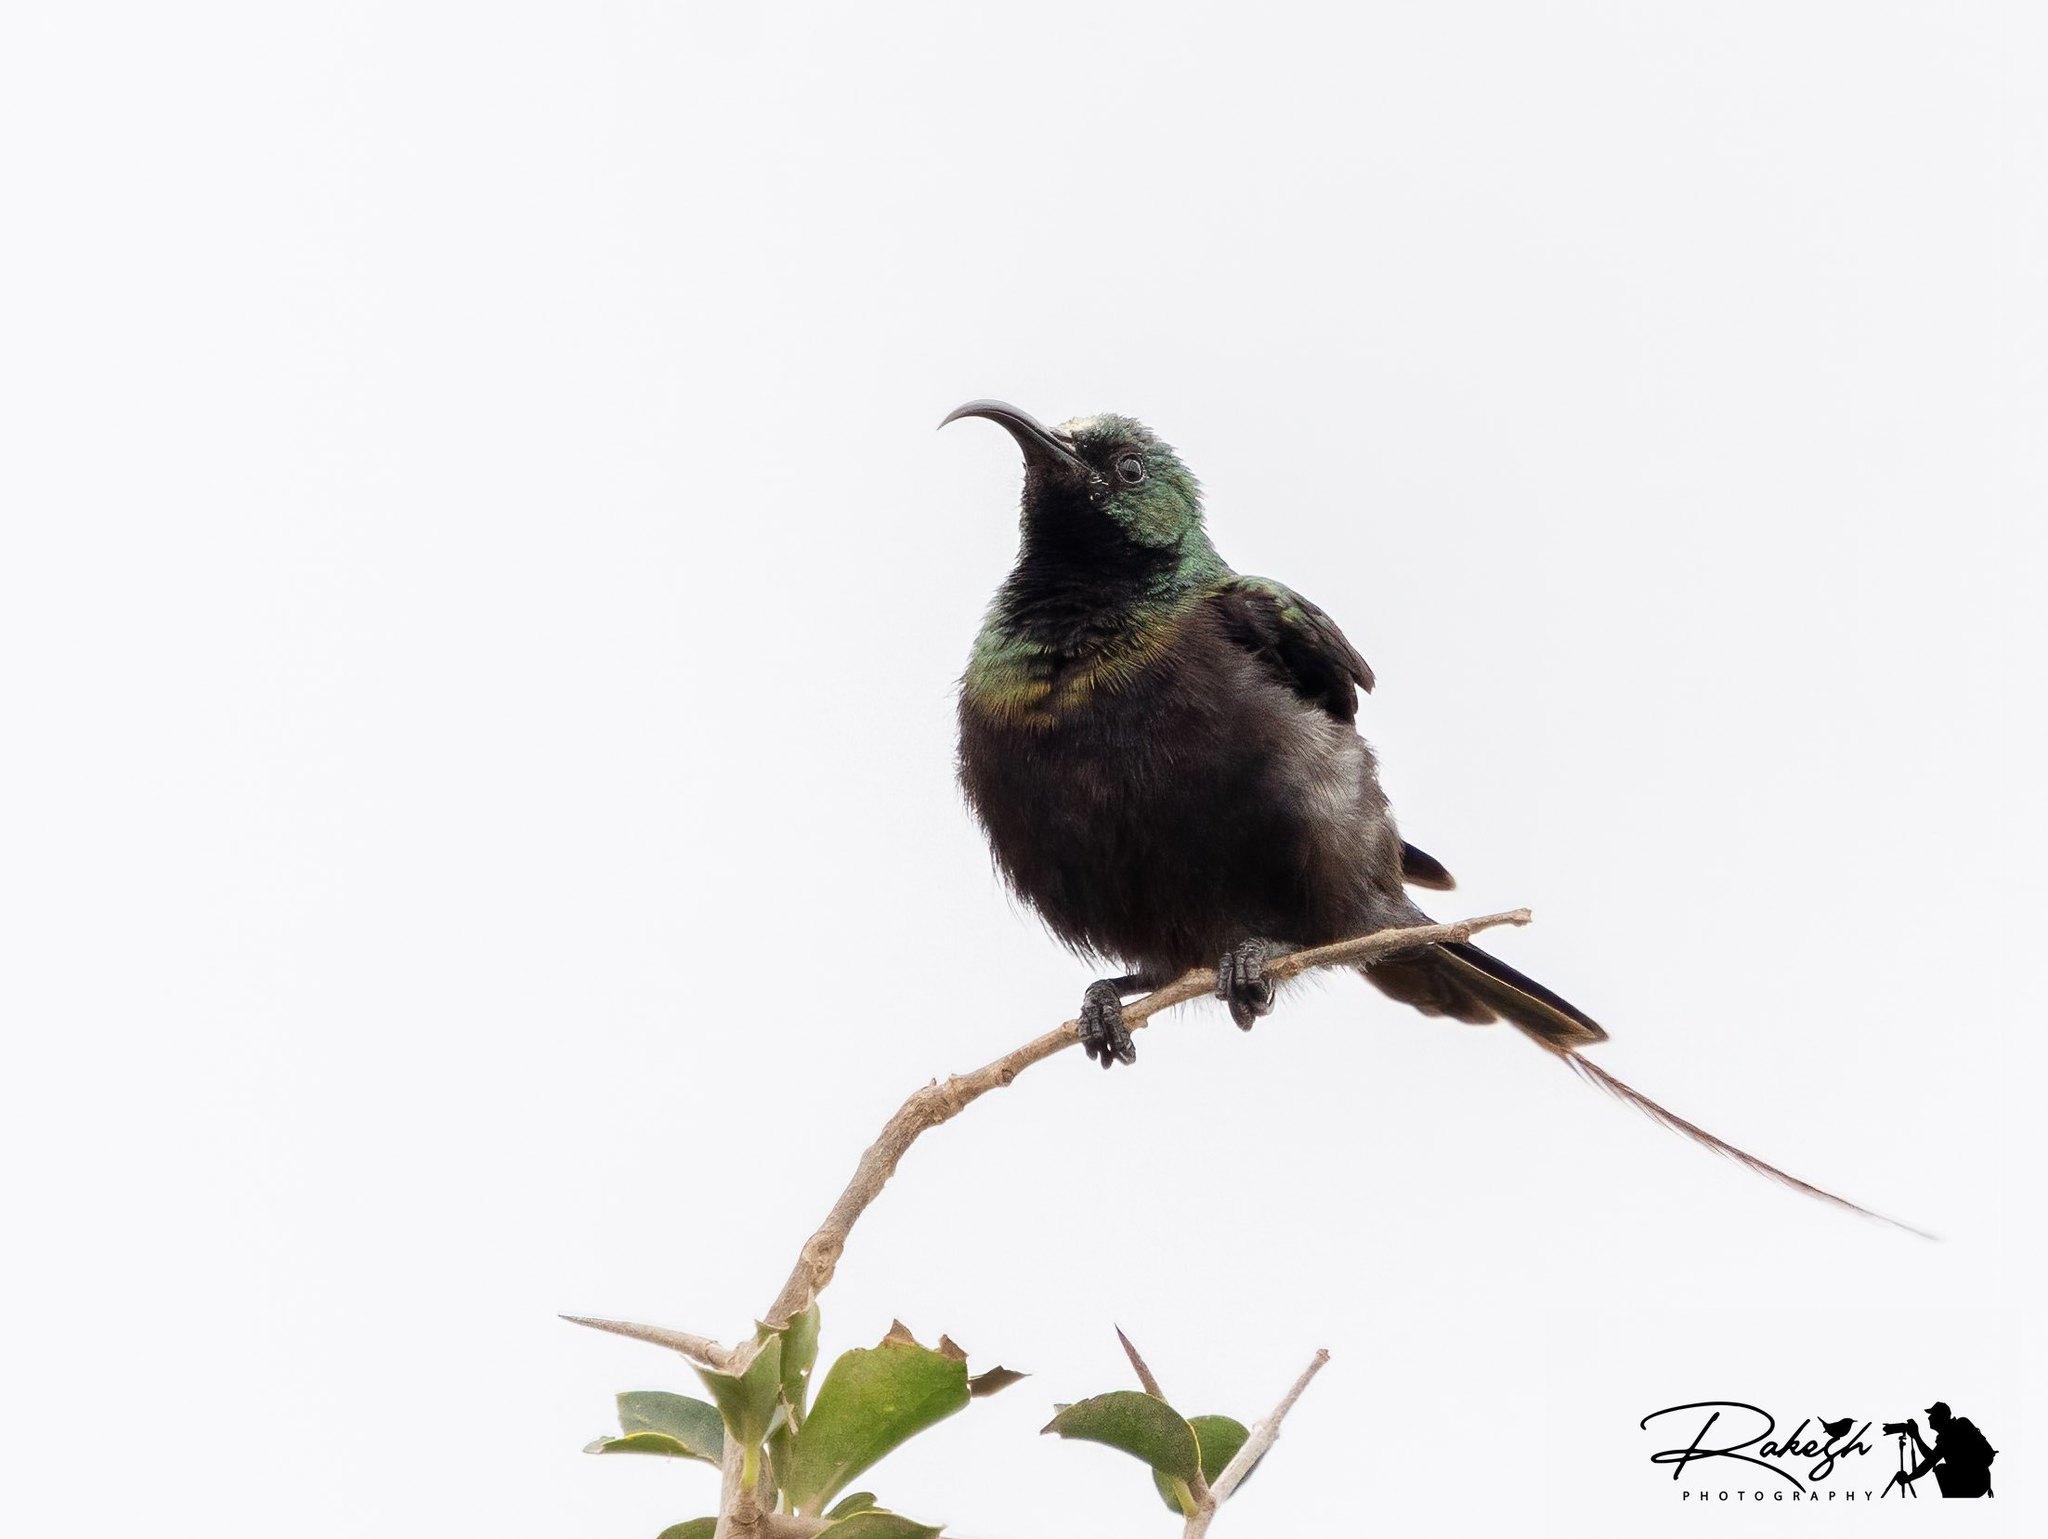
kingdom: Animalia
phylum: Chordata
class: Aves
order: Passeriformes
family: Nectariniidae
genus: Nectarinia
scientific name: Nectarinia kilimensis
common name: Bronzy sunbird
